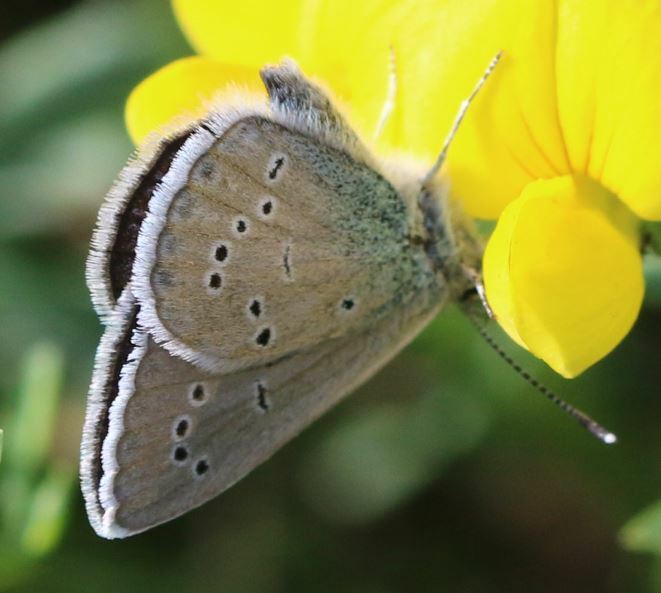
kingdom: Animalia
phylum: Arthropoda
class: Insecta
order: Lepidoptera
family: Lycaenidae
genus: Cyaniris
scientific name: Cyaniris semiargus
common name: Mazarine blue
